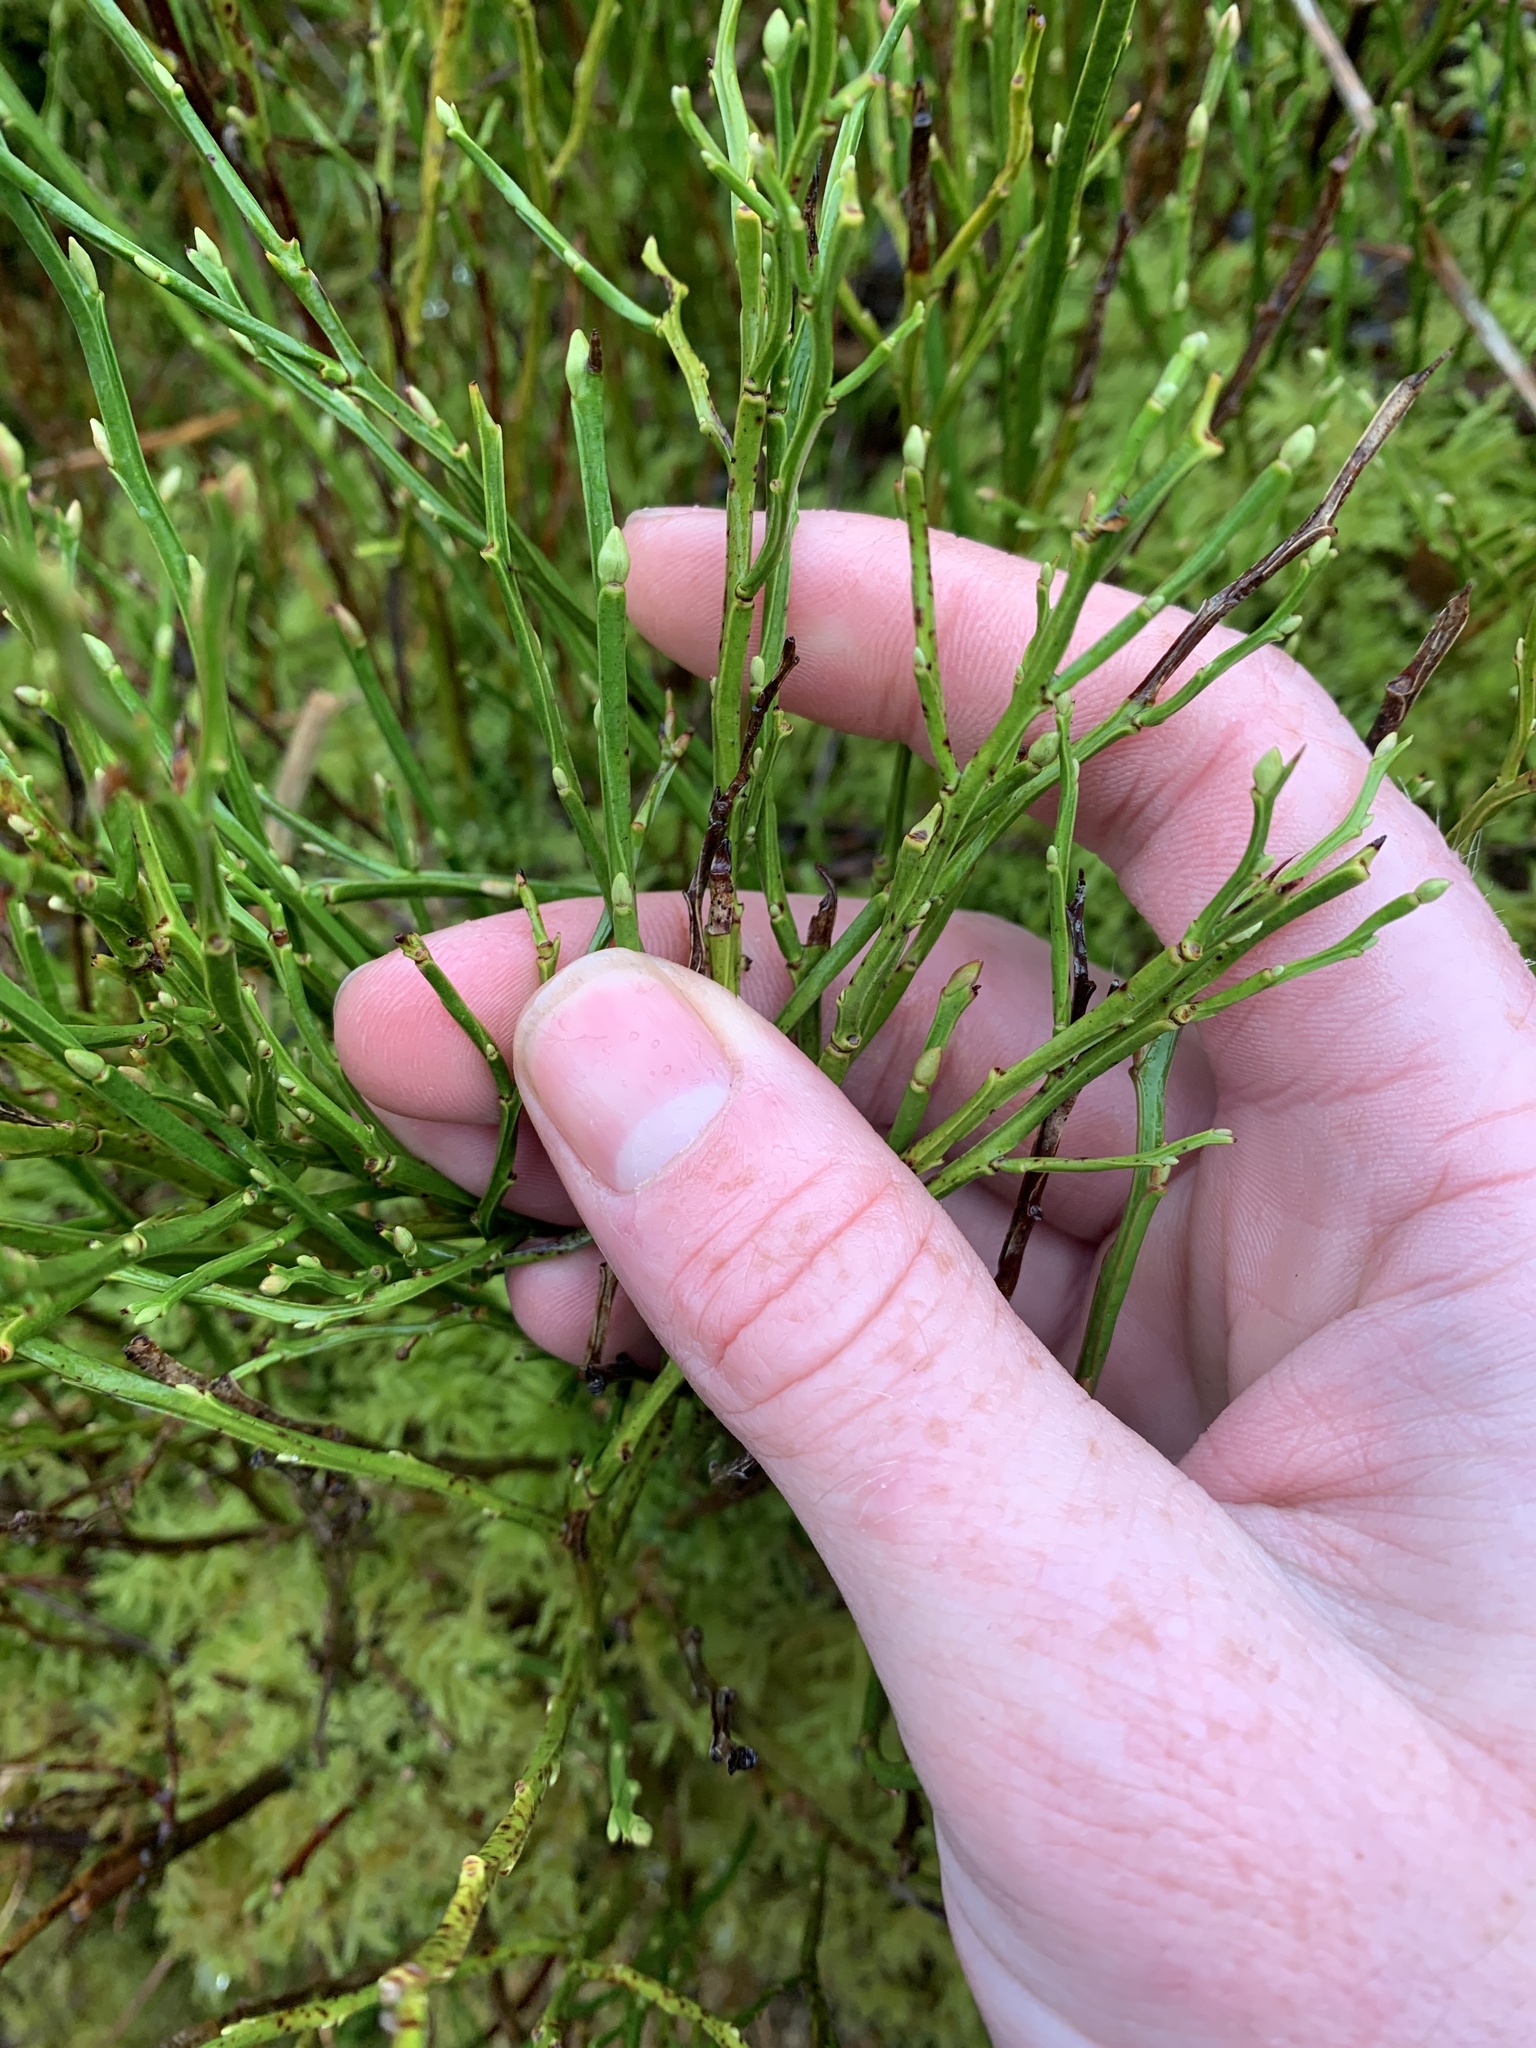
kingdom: Plantae
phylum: Tracheophyta
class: Magnoliopsida
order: Ericales
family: Ericaceae
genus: Vaccinium
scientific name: Vaccinium myrtillus
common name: Bilberry
